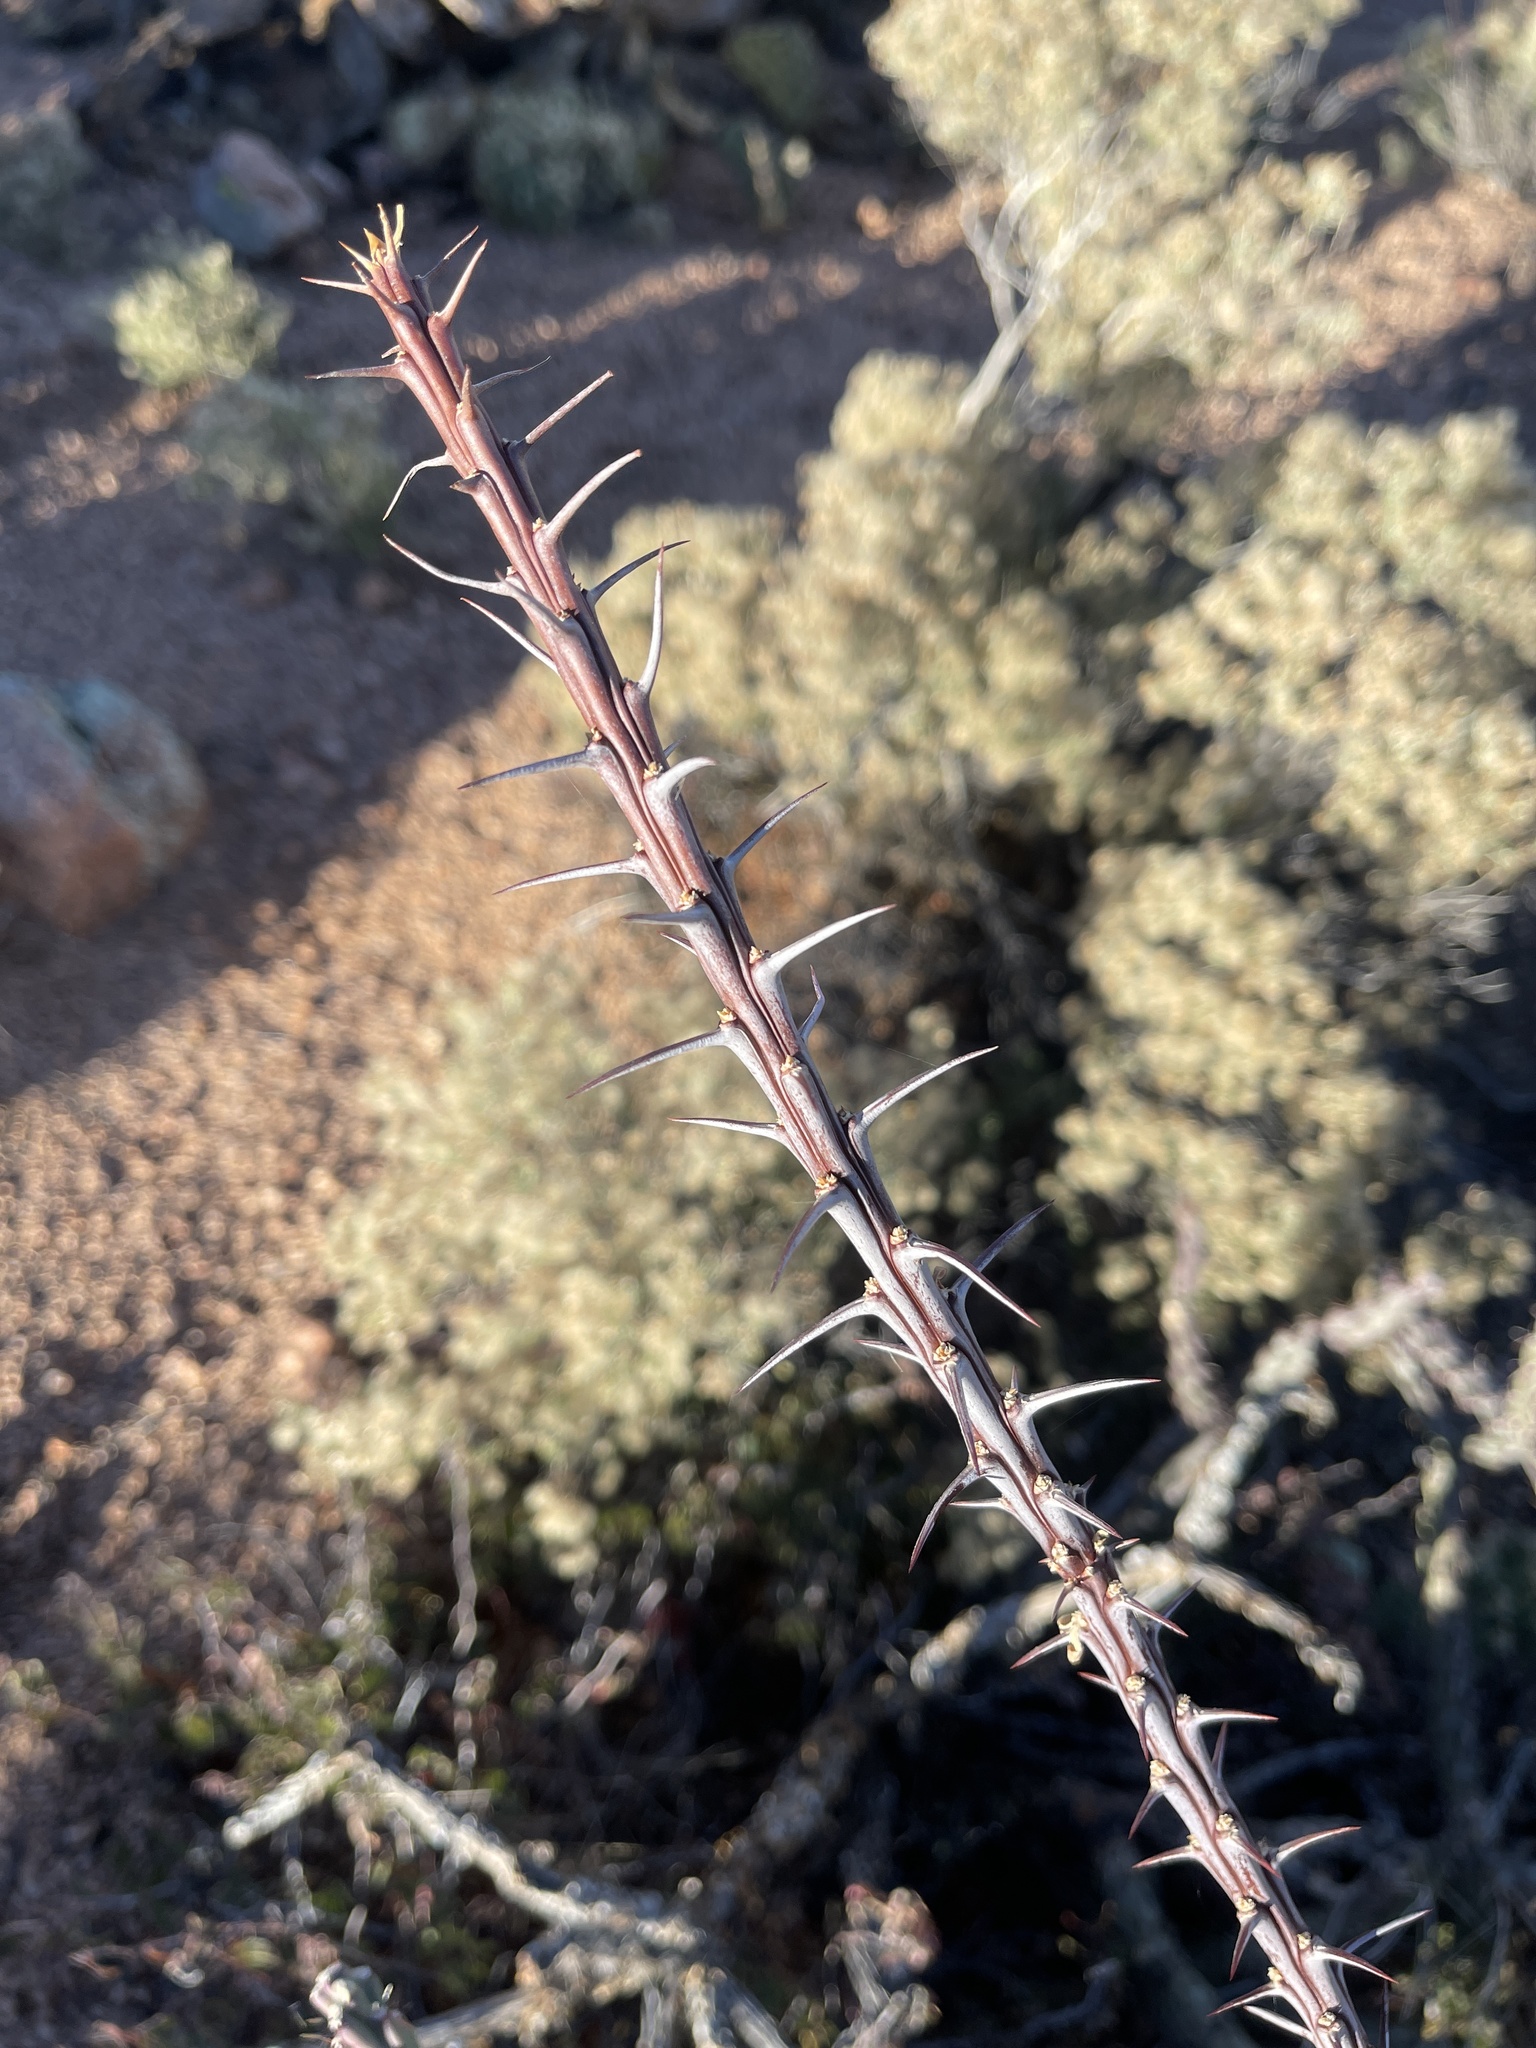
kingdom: Plantae
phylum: Tracheophyta
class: Magnoliopsida
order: Ericales
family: Fouquieriaceae
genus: Fouquieria
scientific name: Fouquieria splendens
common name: Vine-cactus
